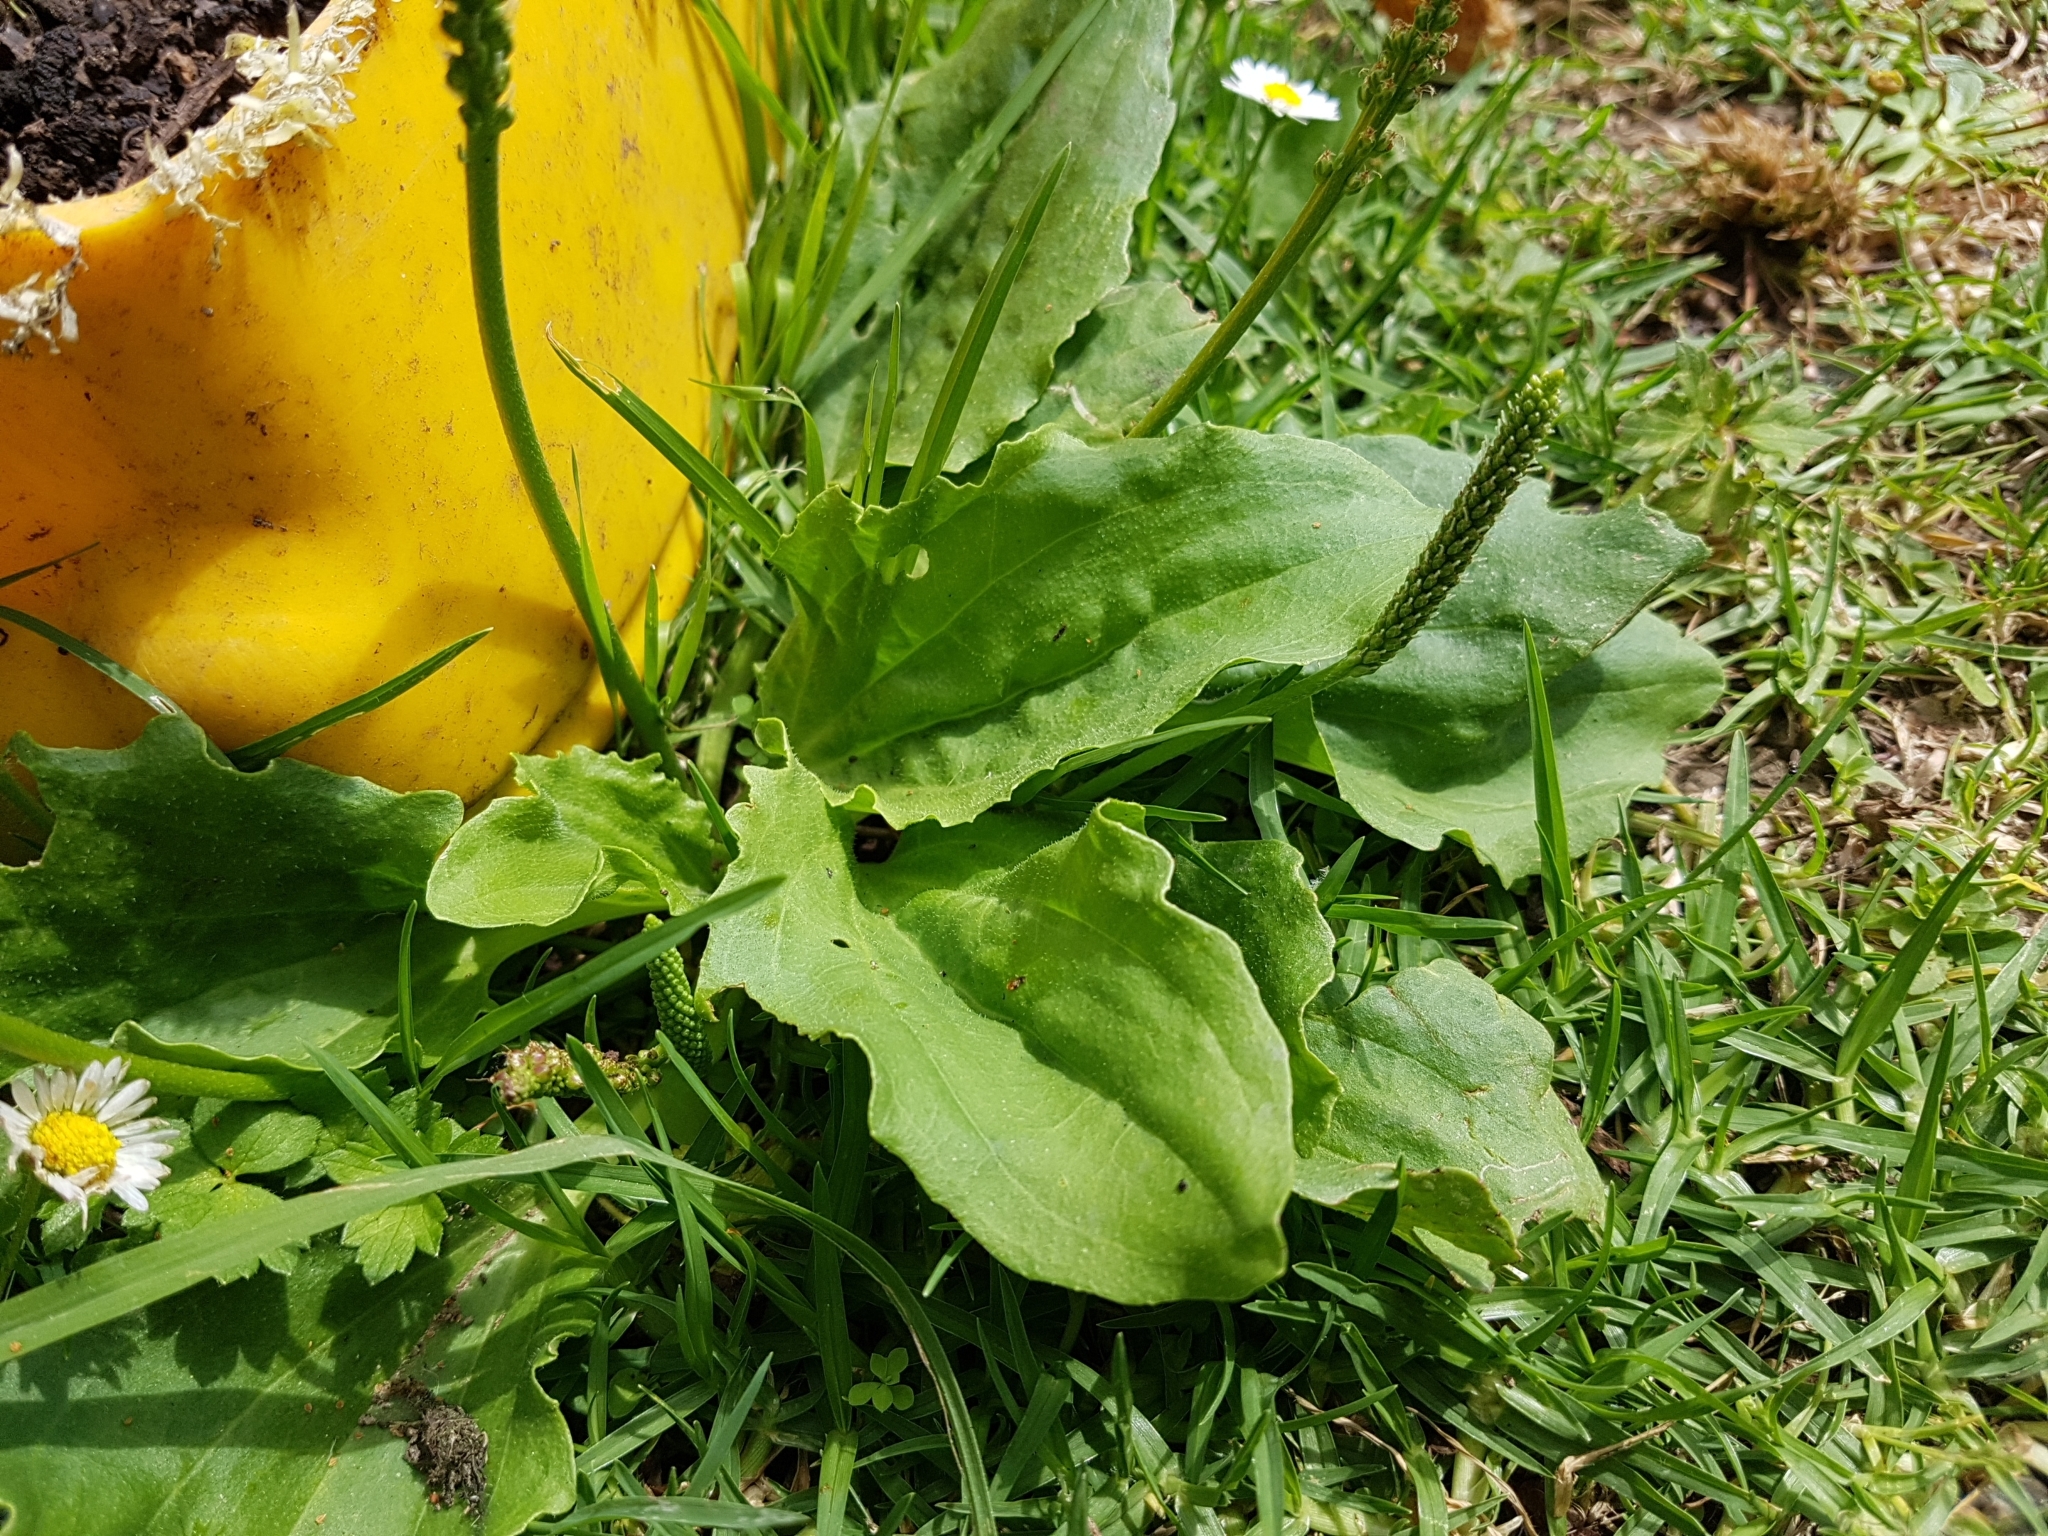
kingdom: Plantae
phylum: Tracheophyta
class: Magnoliopsida
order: Lamiales
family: Plantaginaceae
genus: Plantago
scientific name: Plantago major
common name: Common plantain
